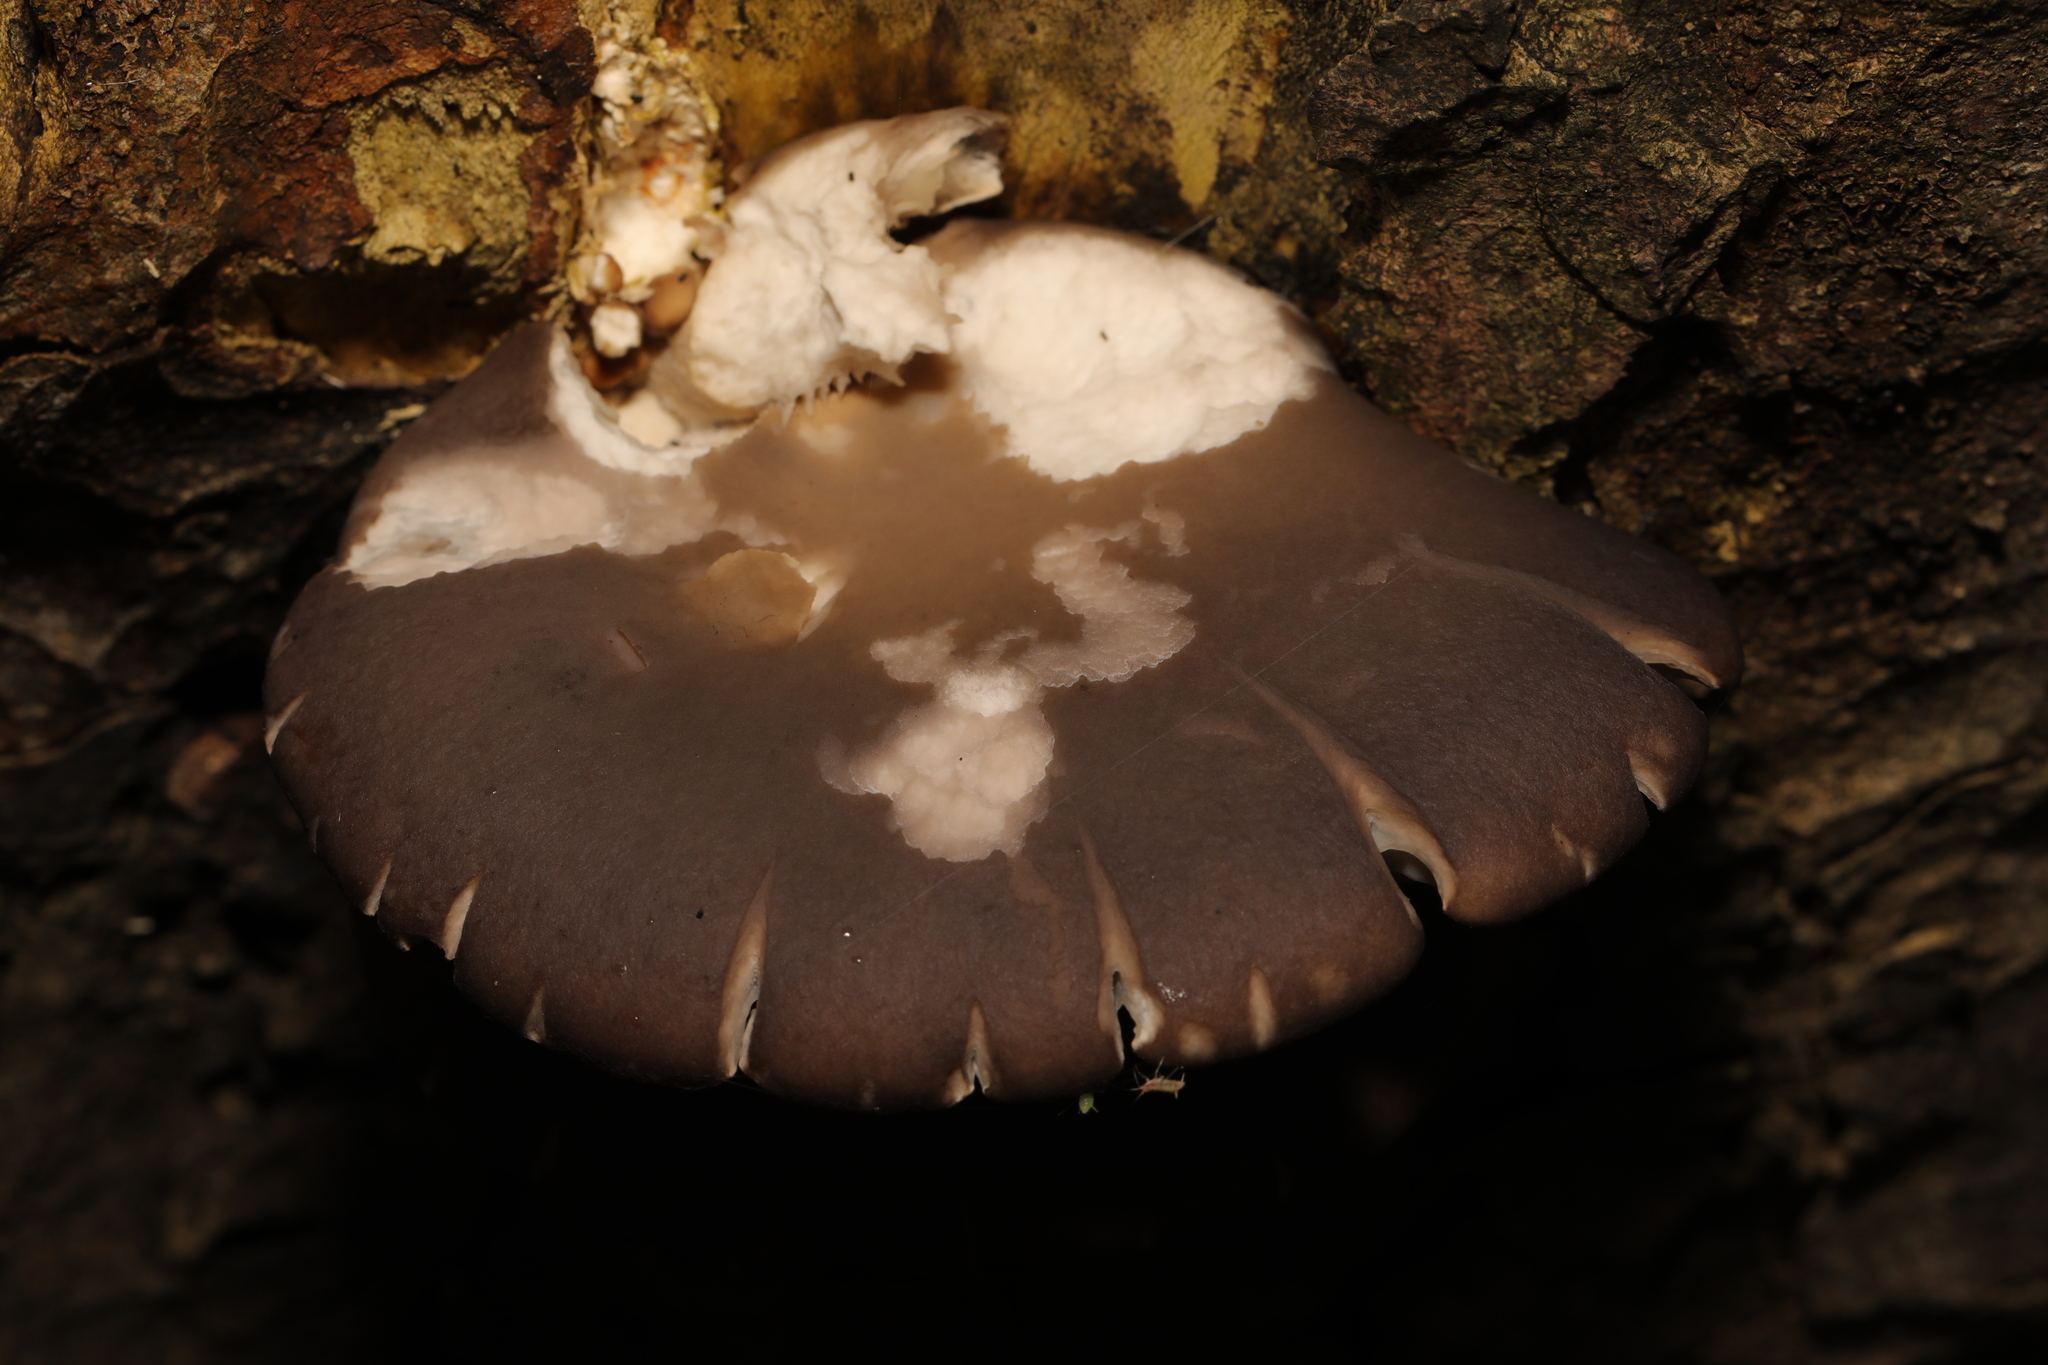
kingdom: Fungi
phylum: Basidiomycota
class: Agaricomycetes
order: Agaricales
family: Pleurotaceae
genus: Pleurotus
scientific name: Pleurotus ostreatus
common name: Oyster mushroom
